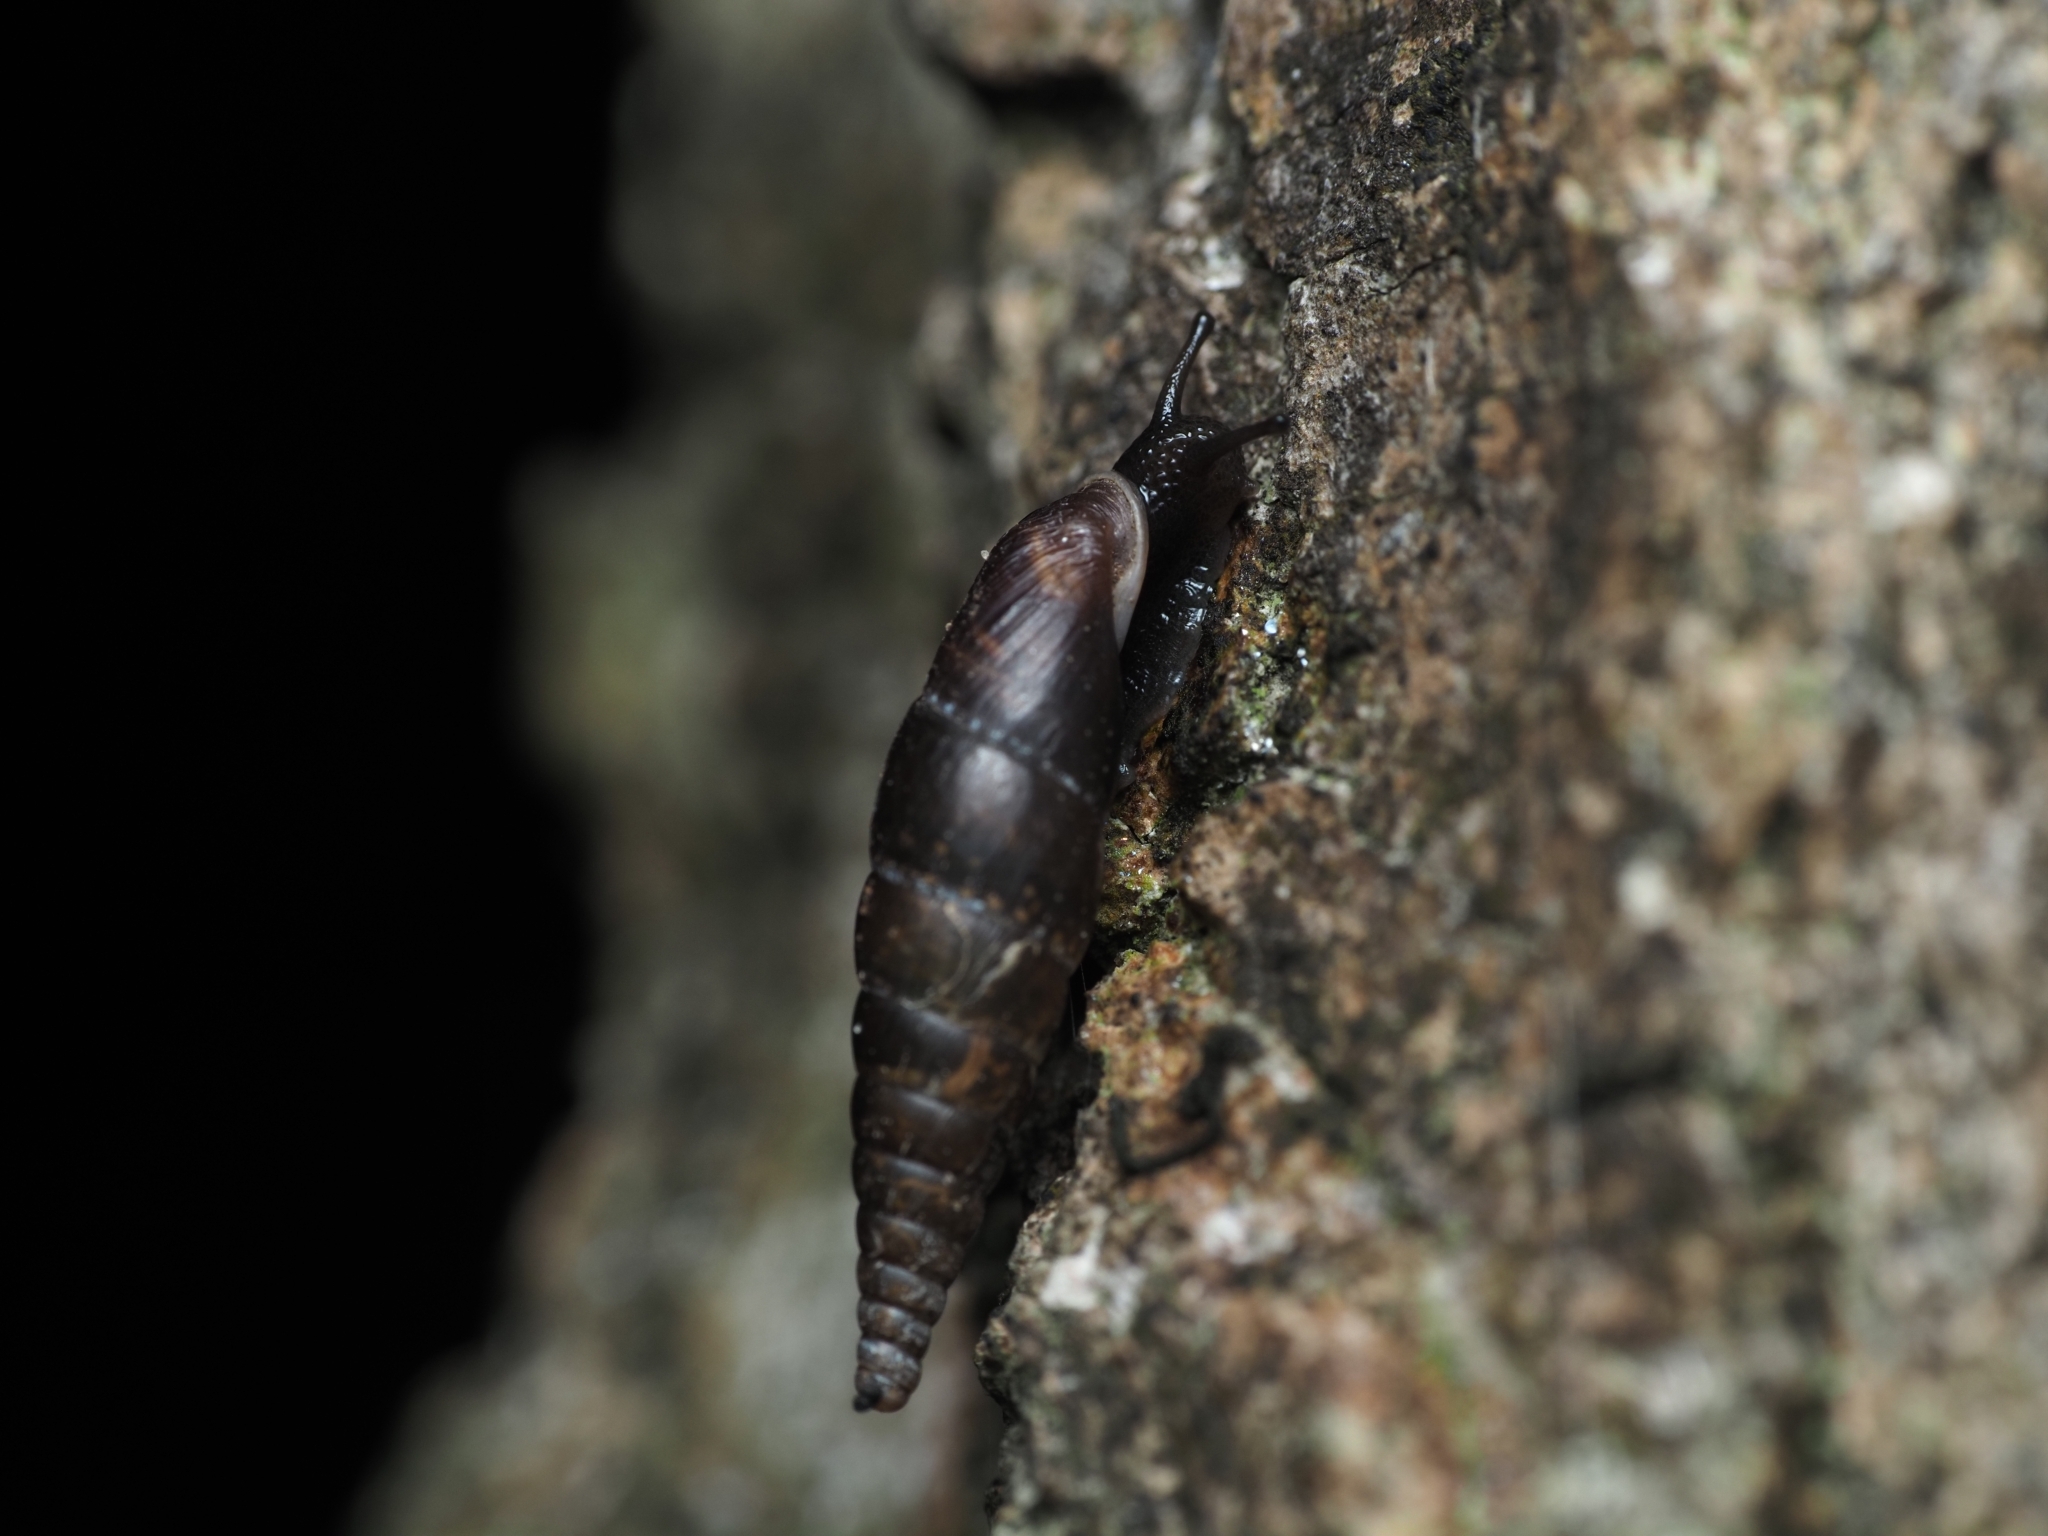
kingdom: Animalia
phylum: Mollusca
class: Gastropoda
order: Stylommatophora
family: Clausiliidae
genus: Cochlodina
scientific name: Cochlodina laminata
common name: Plaited door snail
